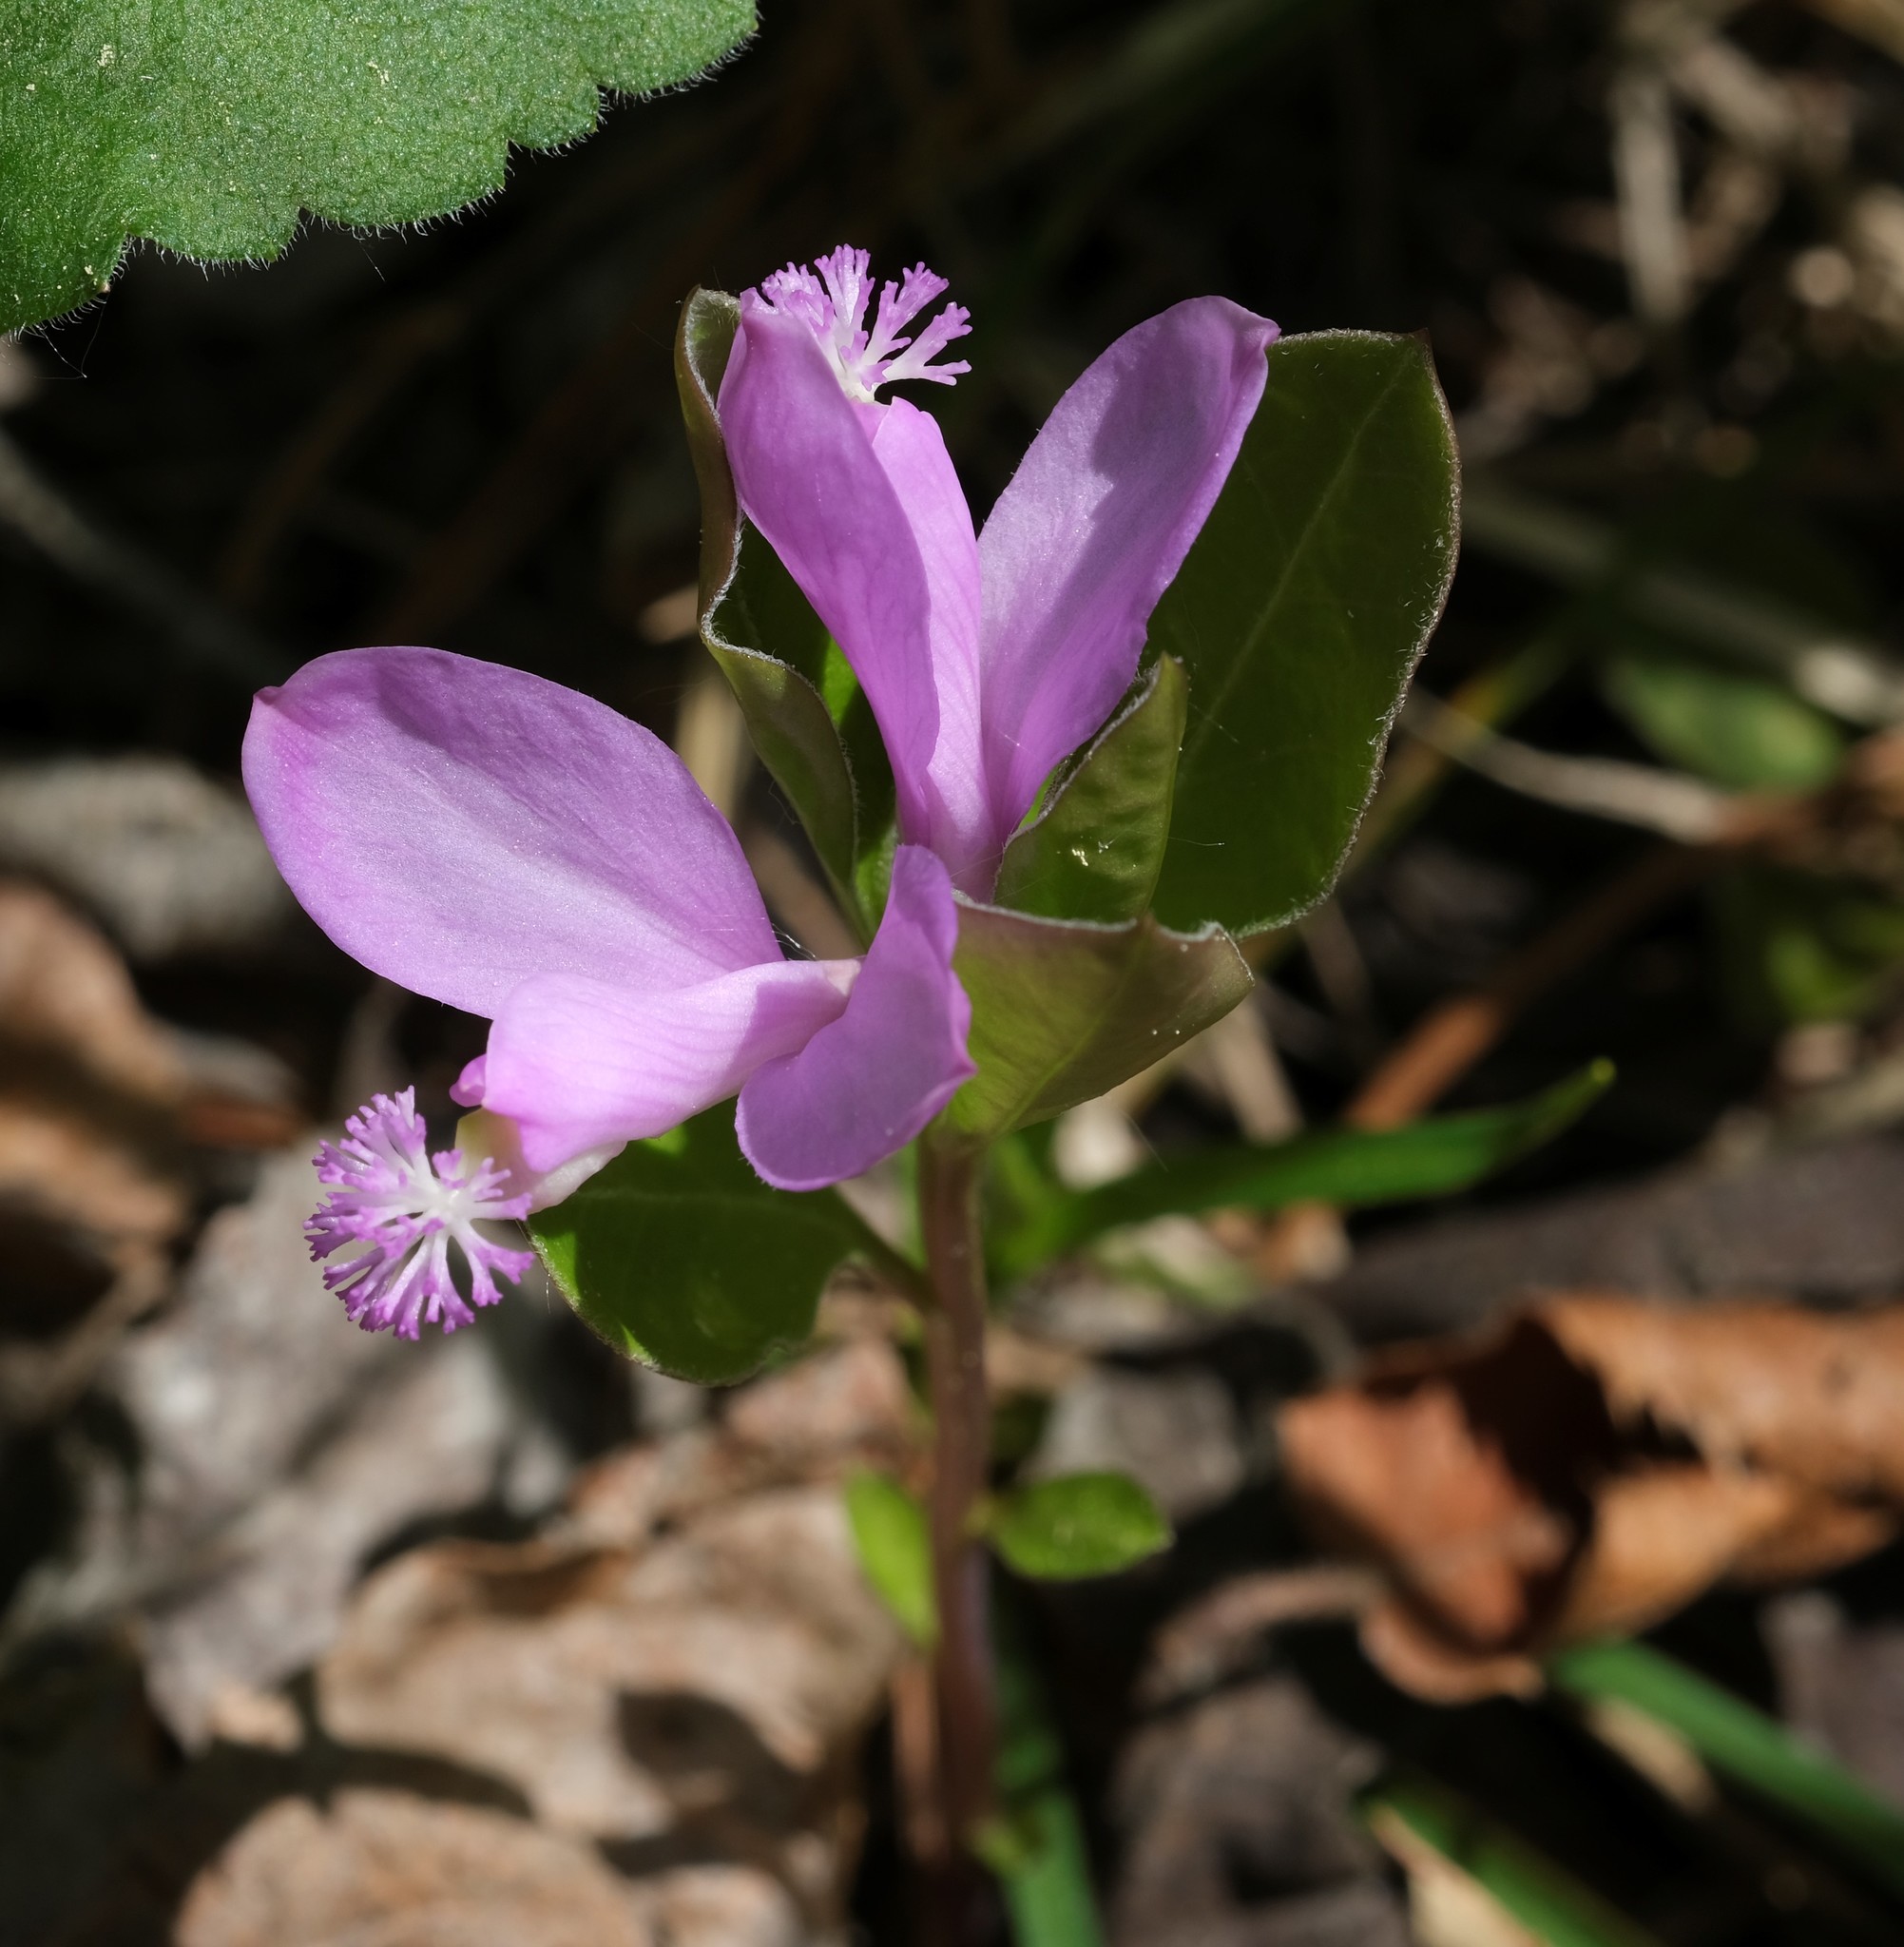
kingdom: Plantae
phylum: Tracheophyta
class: Magnoliopsida
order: Fabales
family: Polygalaceae
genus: Polygaloides
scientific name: Polygaloides paucifolia
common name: Bird-on-the-wing
